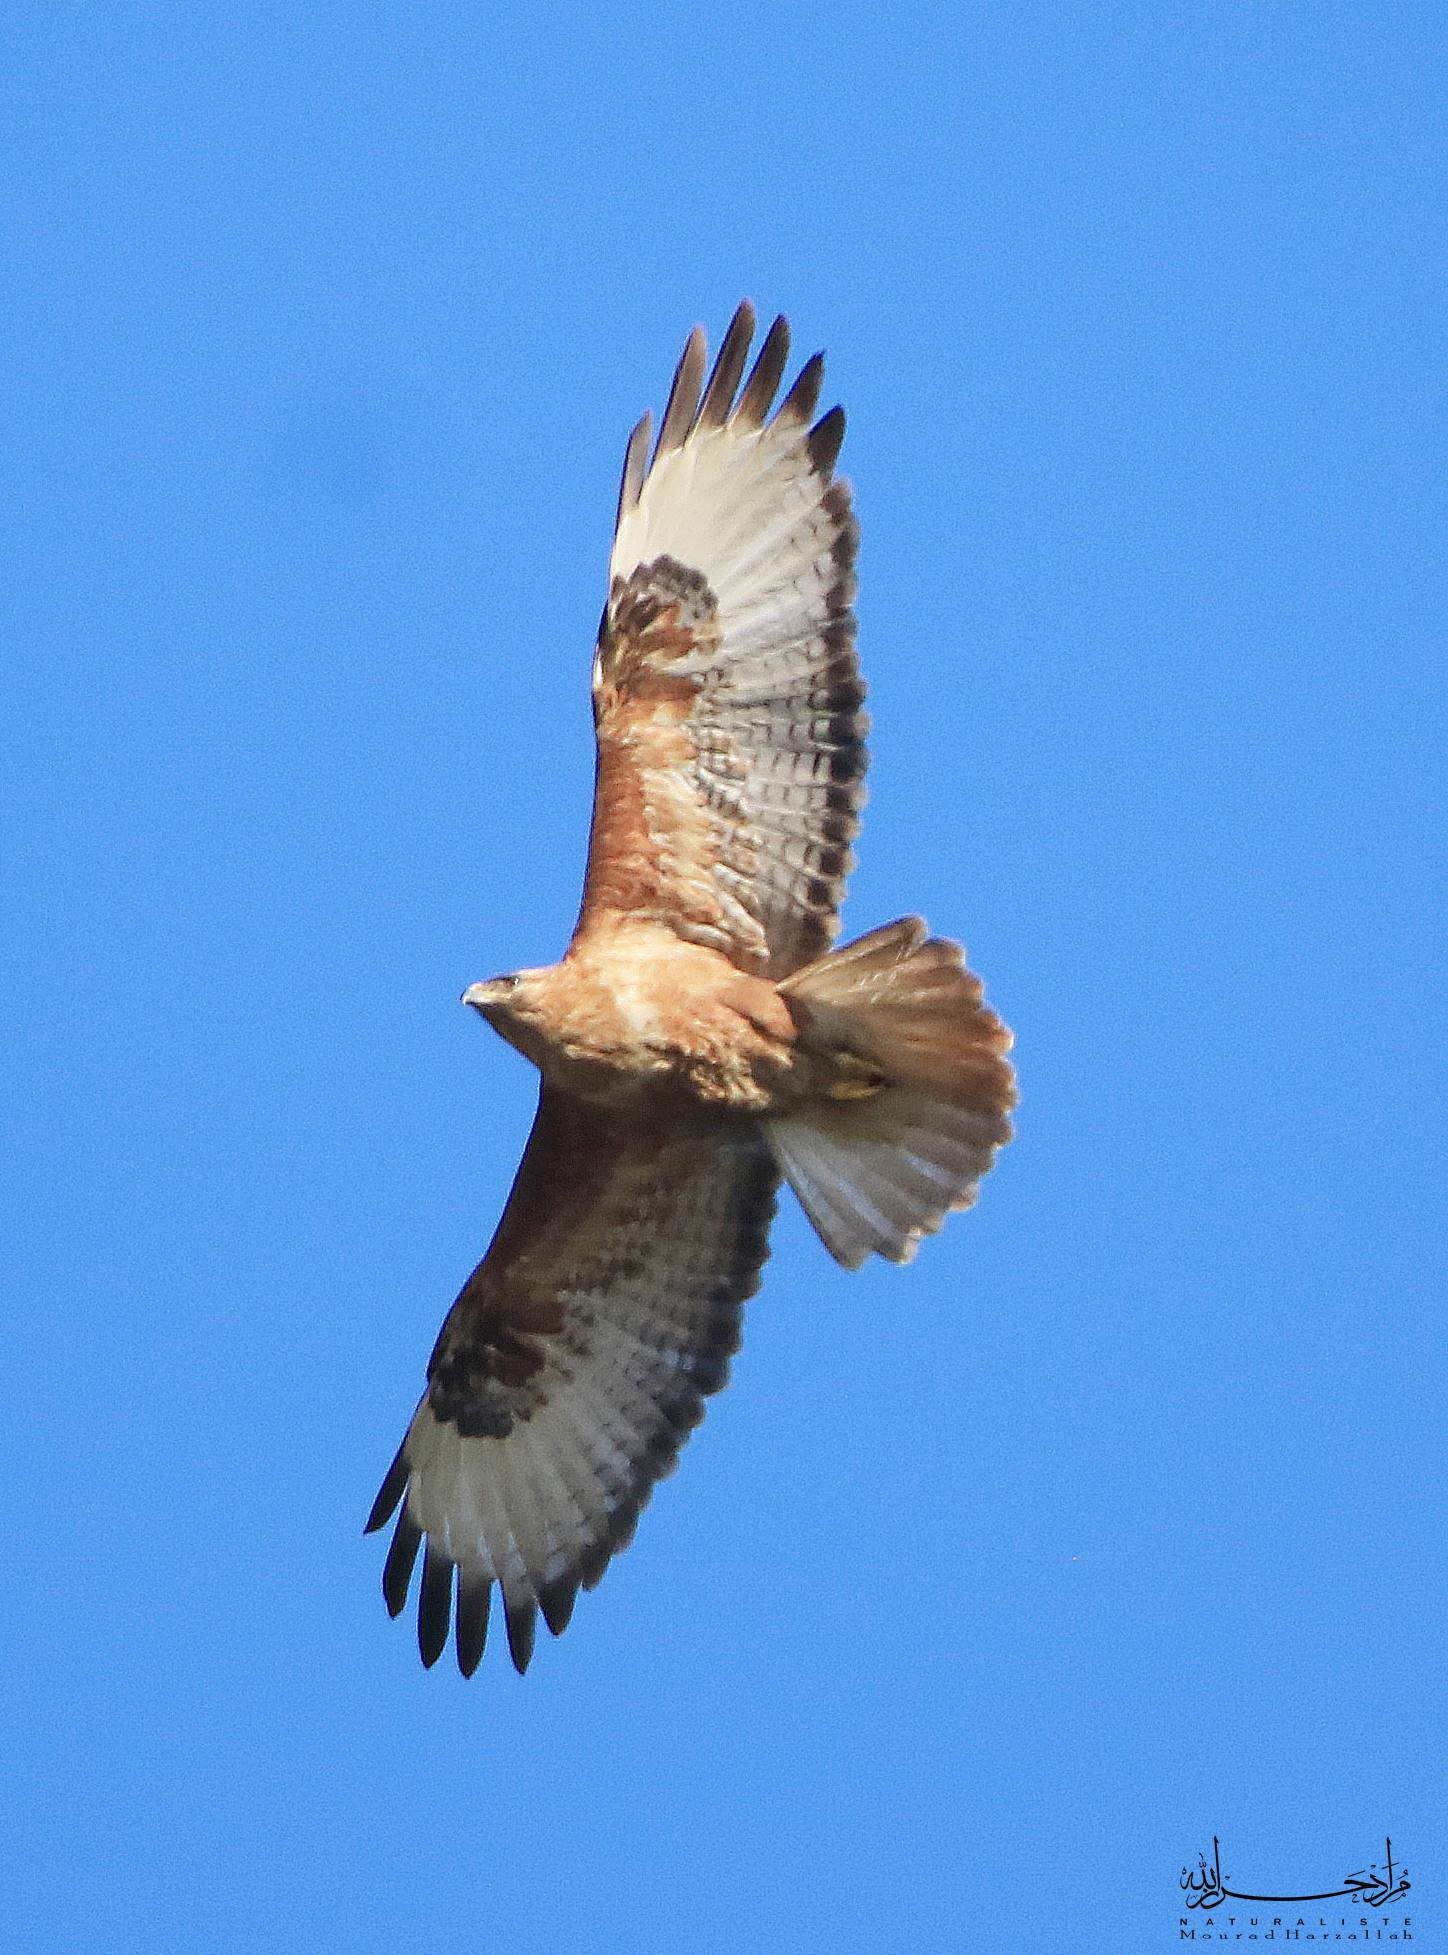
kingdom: Animalia
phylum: Chordata
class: Aves
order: Accipitriformes
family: Accipitridae
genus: Buteo
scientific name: Buteo rufinus
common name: Long-legged buzzard
